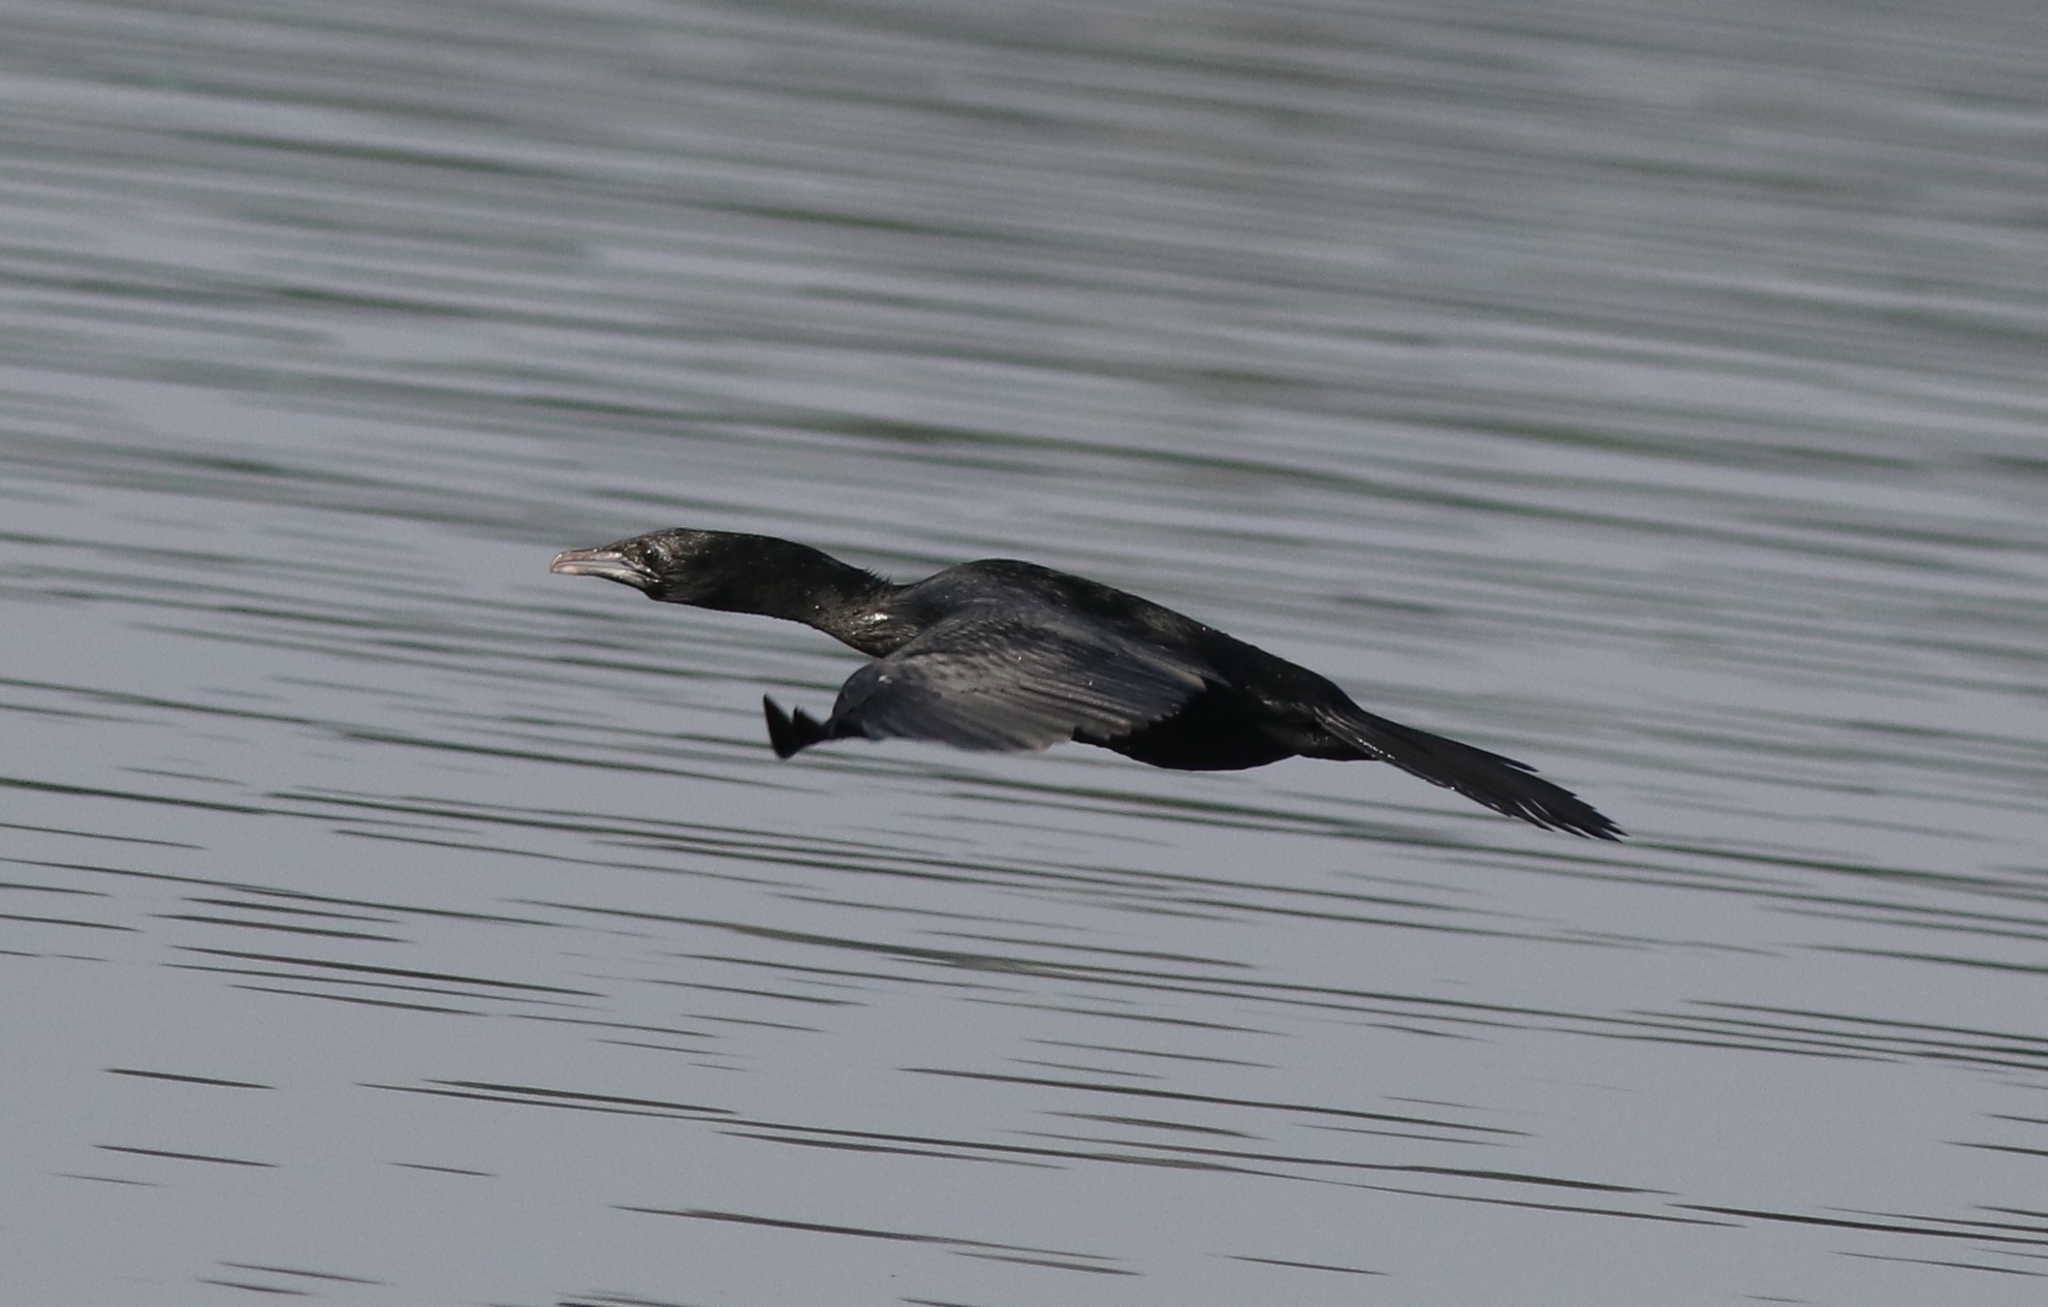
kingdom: Animalia
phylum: Chordata
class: Aves
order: Suliformes
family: Phalacrocoracidae
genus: Microcarbo
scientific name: Microcarbo niger
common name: Little cormorant
